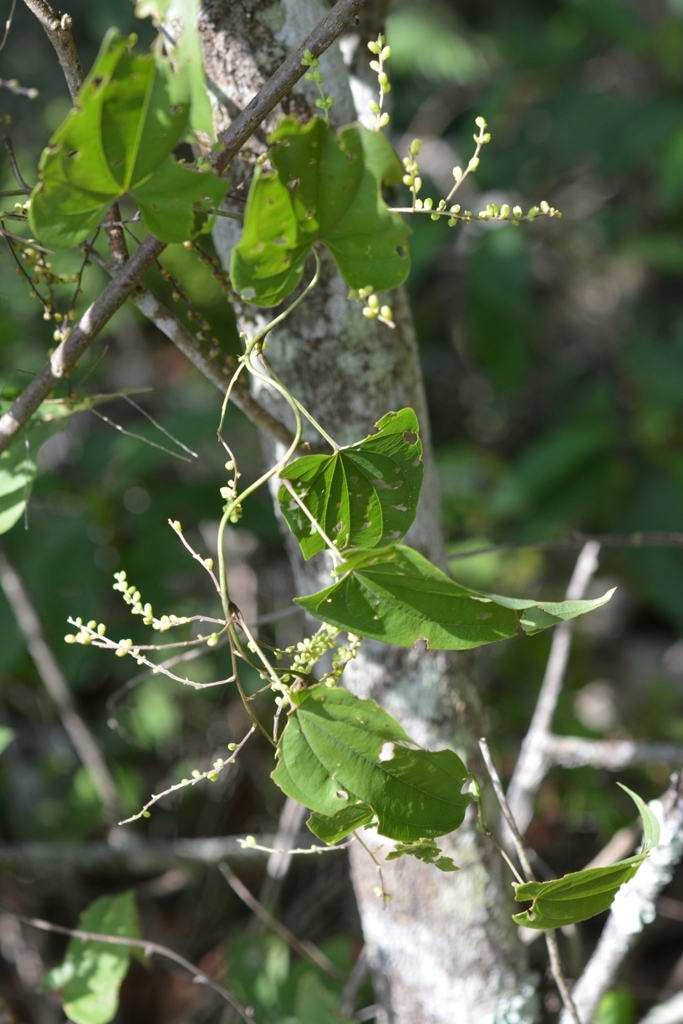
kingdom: Plantae
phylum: Tracheophyta
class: Liliopsida
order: Dioscoreales
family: Dioscoreaceae
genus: Dioscorea
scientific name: Dioscorea spiculiflora
